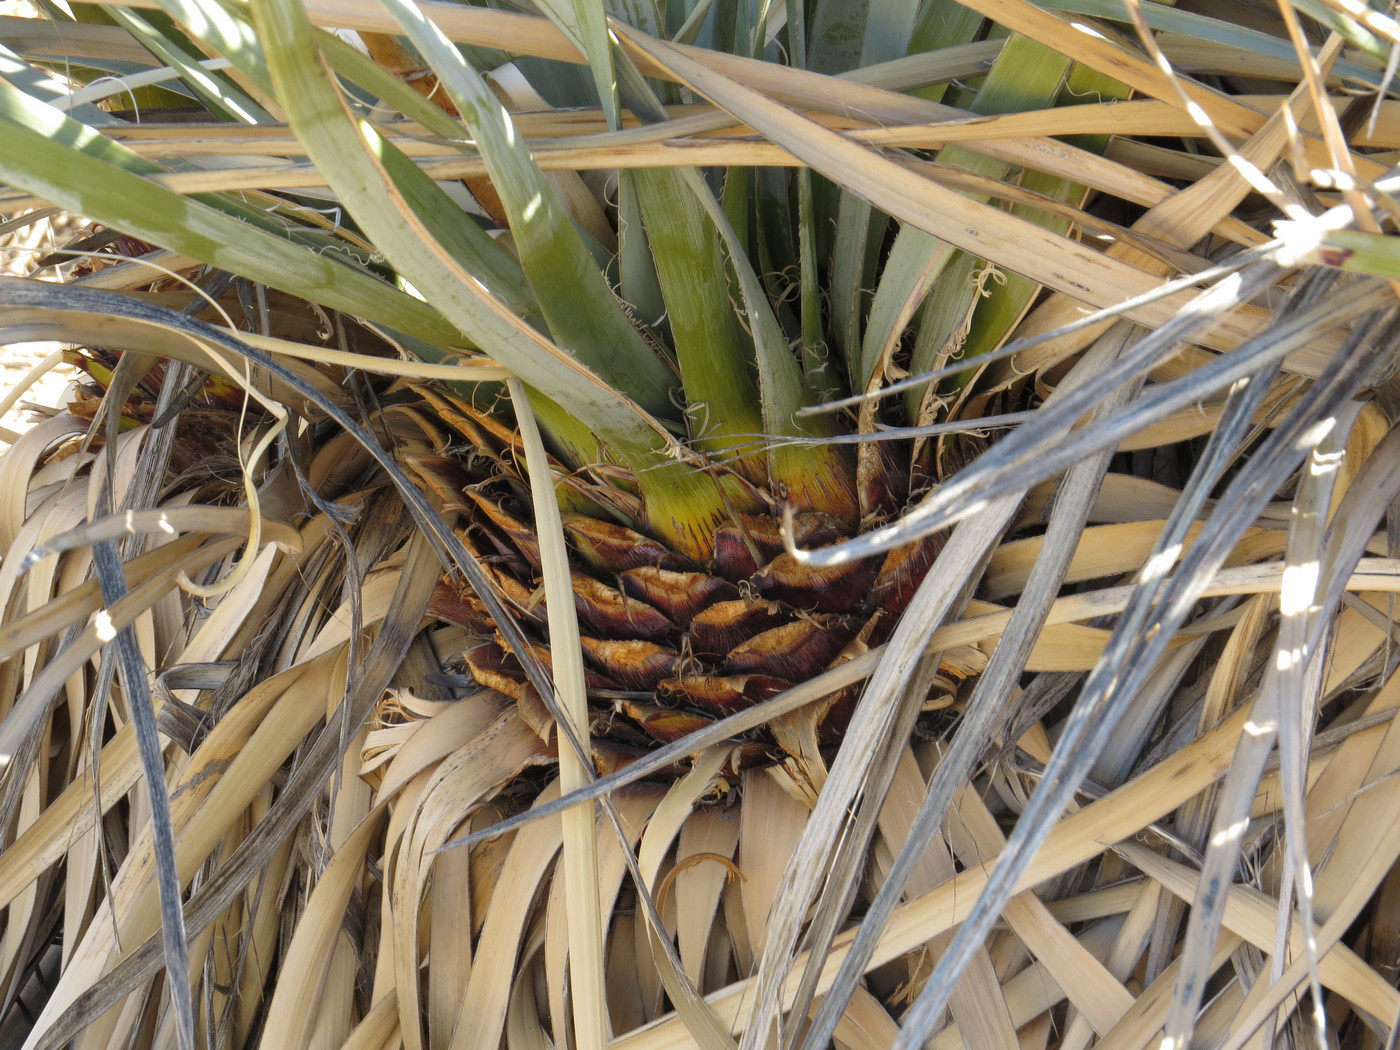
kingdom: Plantae
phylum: Tracheophyta
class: Liliopsida
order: Asparagales
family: Asparagaceae
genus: Nolina
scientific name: Nolina bigelovii
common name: Bigelow bear-grass
